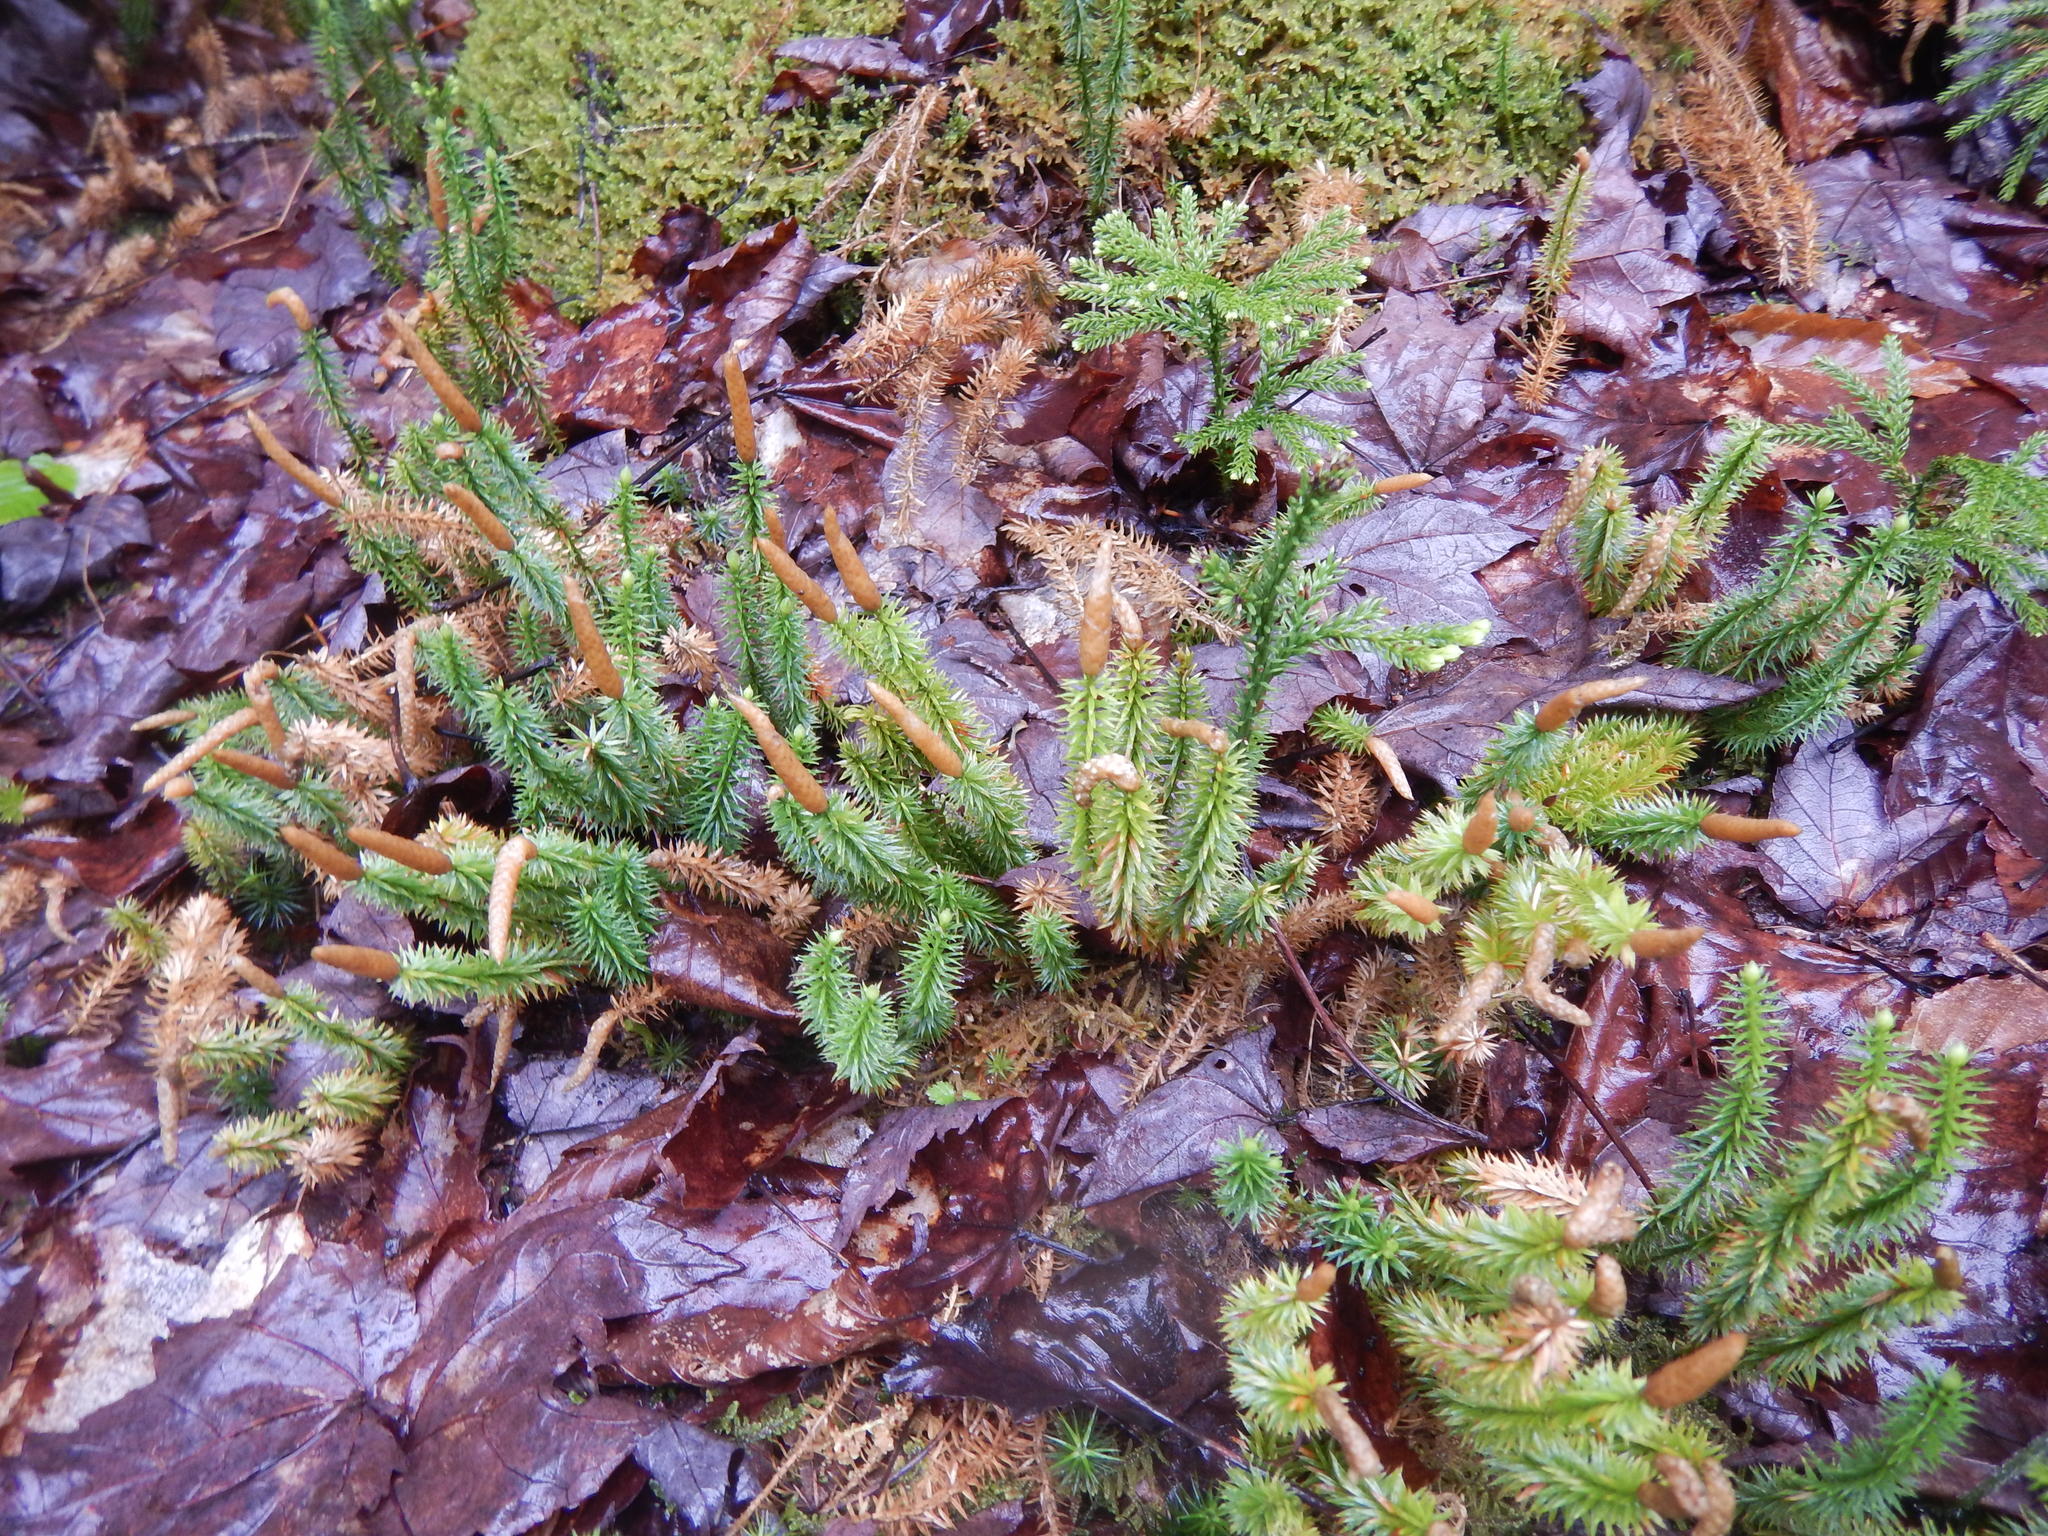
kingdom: Plantae
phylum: Tracheophyta
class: Lycopodiopsida
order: Lycopodiales
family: Lycopodiaceae
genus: Spinulum
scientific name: Spinulum annotinum
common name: Interrupted club-moss
